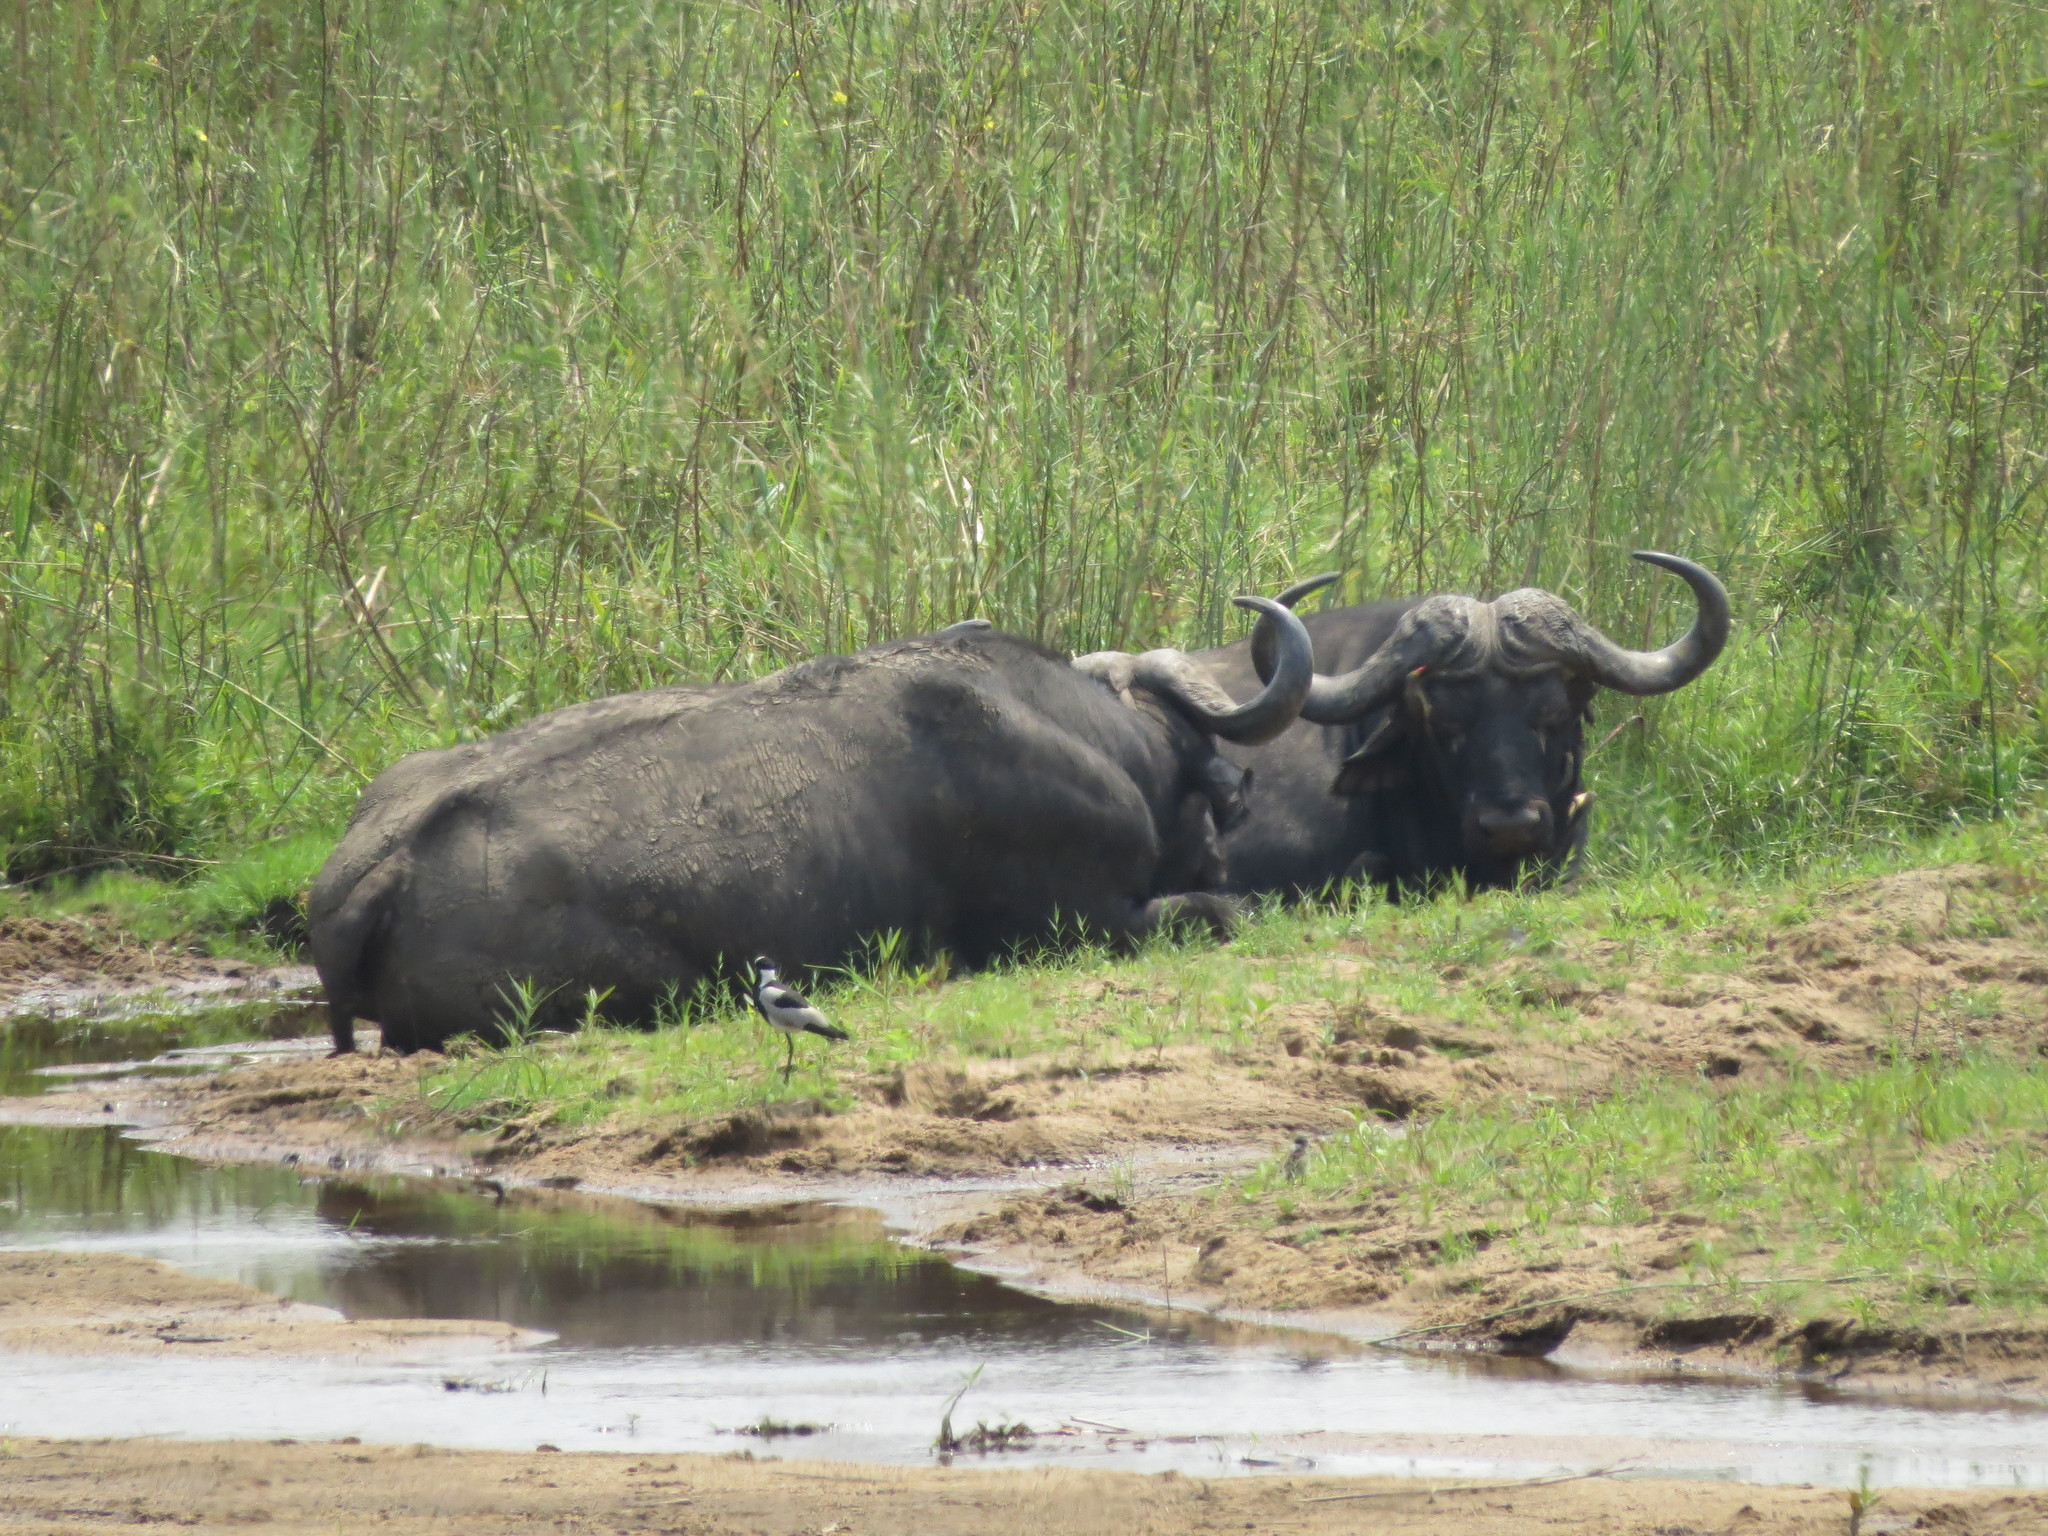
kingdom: Animalia
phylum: Chordata
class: Mammalia
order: Artiodactyla
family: Bovidae
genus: Syncerus
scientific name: Syncerus caffer
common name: African buffalo
